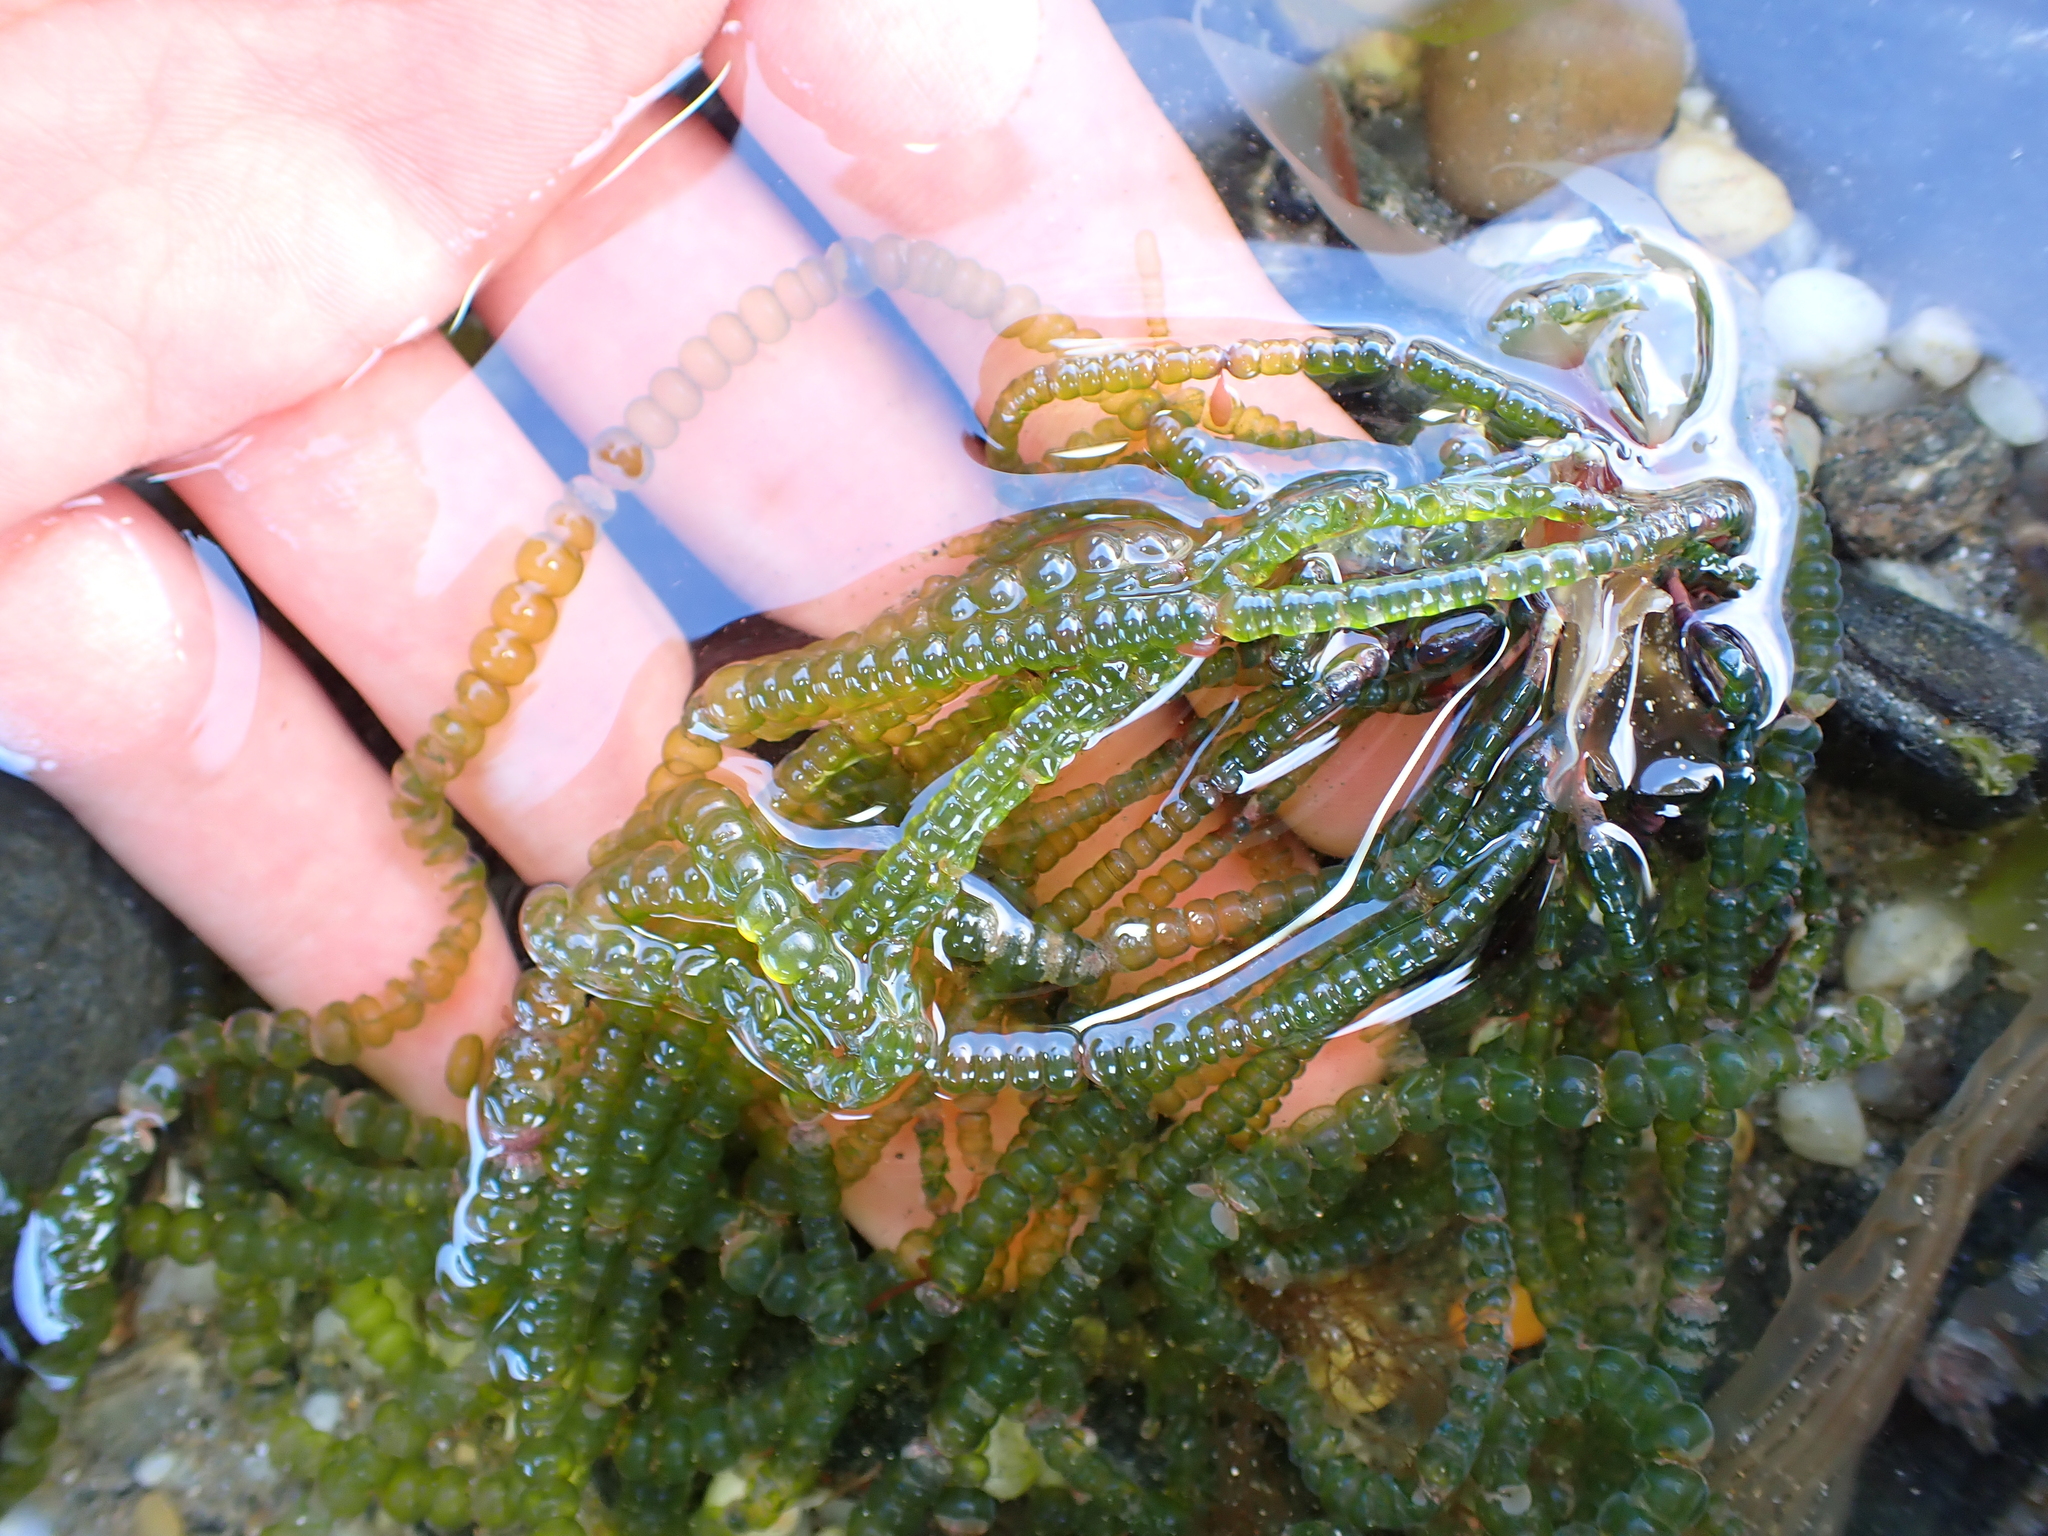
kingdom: Plantae
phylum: Chlorophyta
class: Ulvophyceae
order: Cladophorales
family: Cladophoraceae
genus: Chaetomorpha
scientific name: Chaetomorpha coliformis
